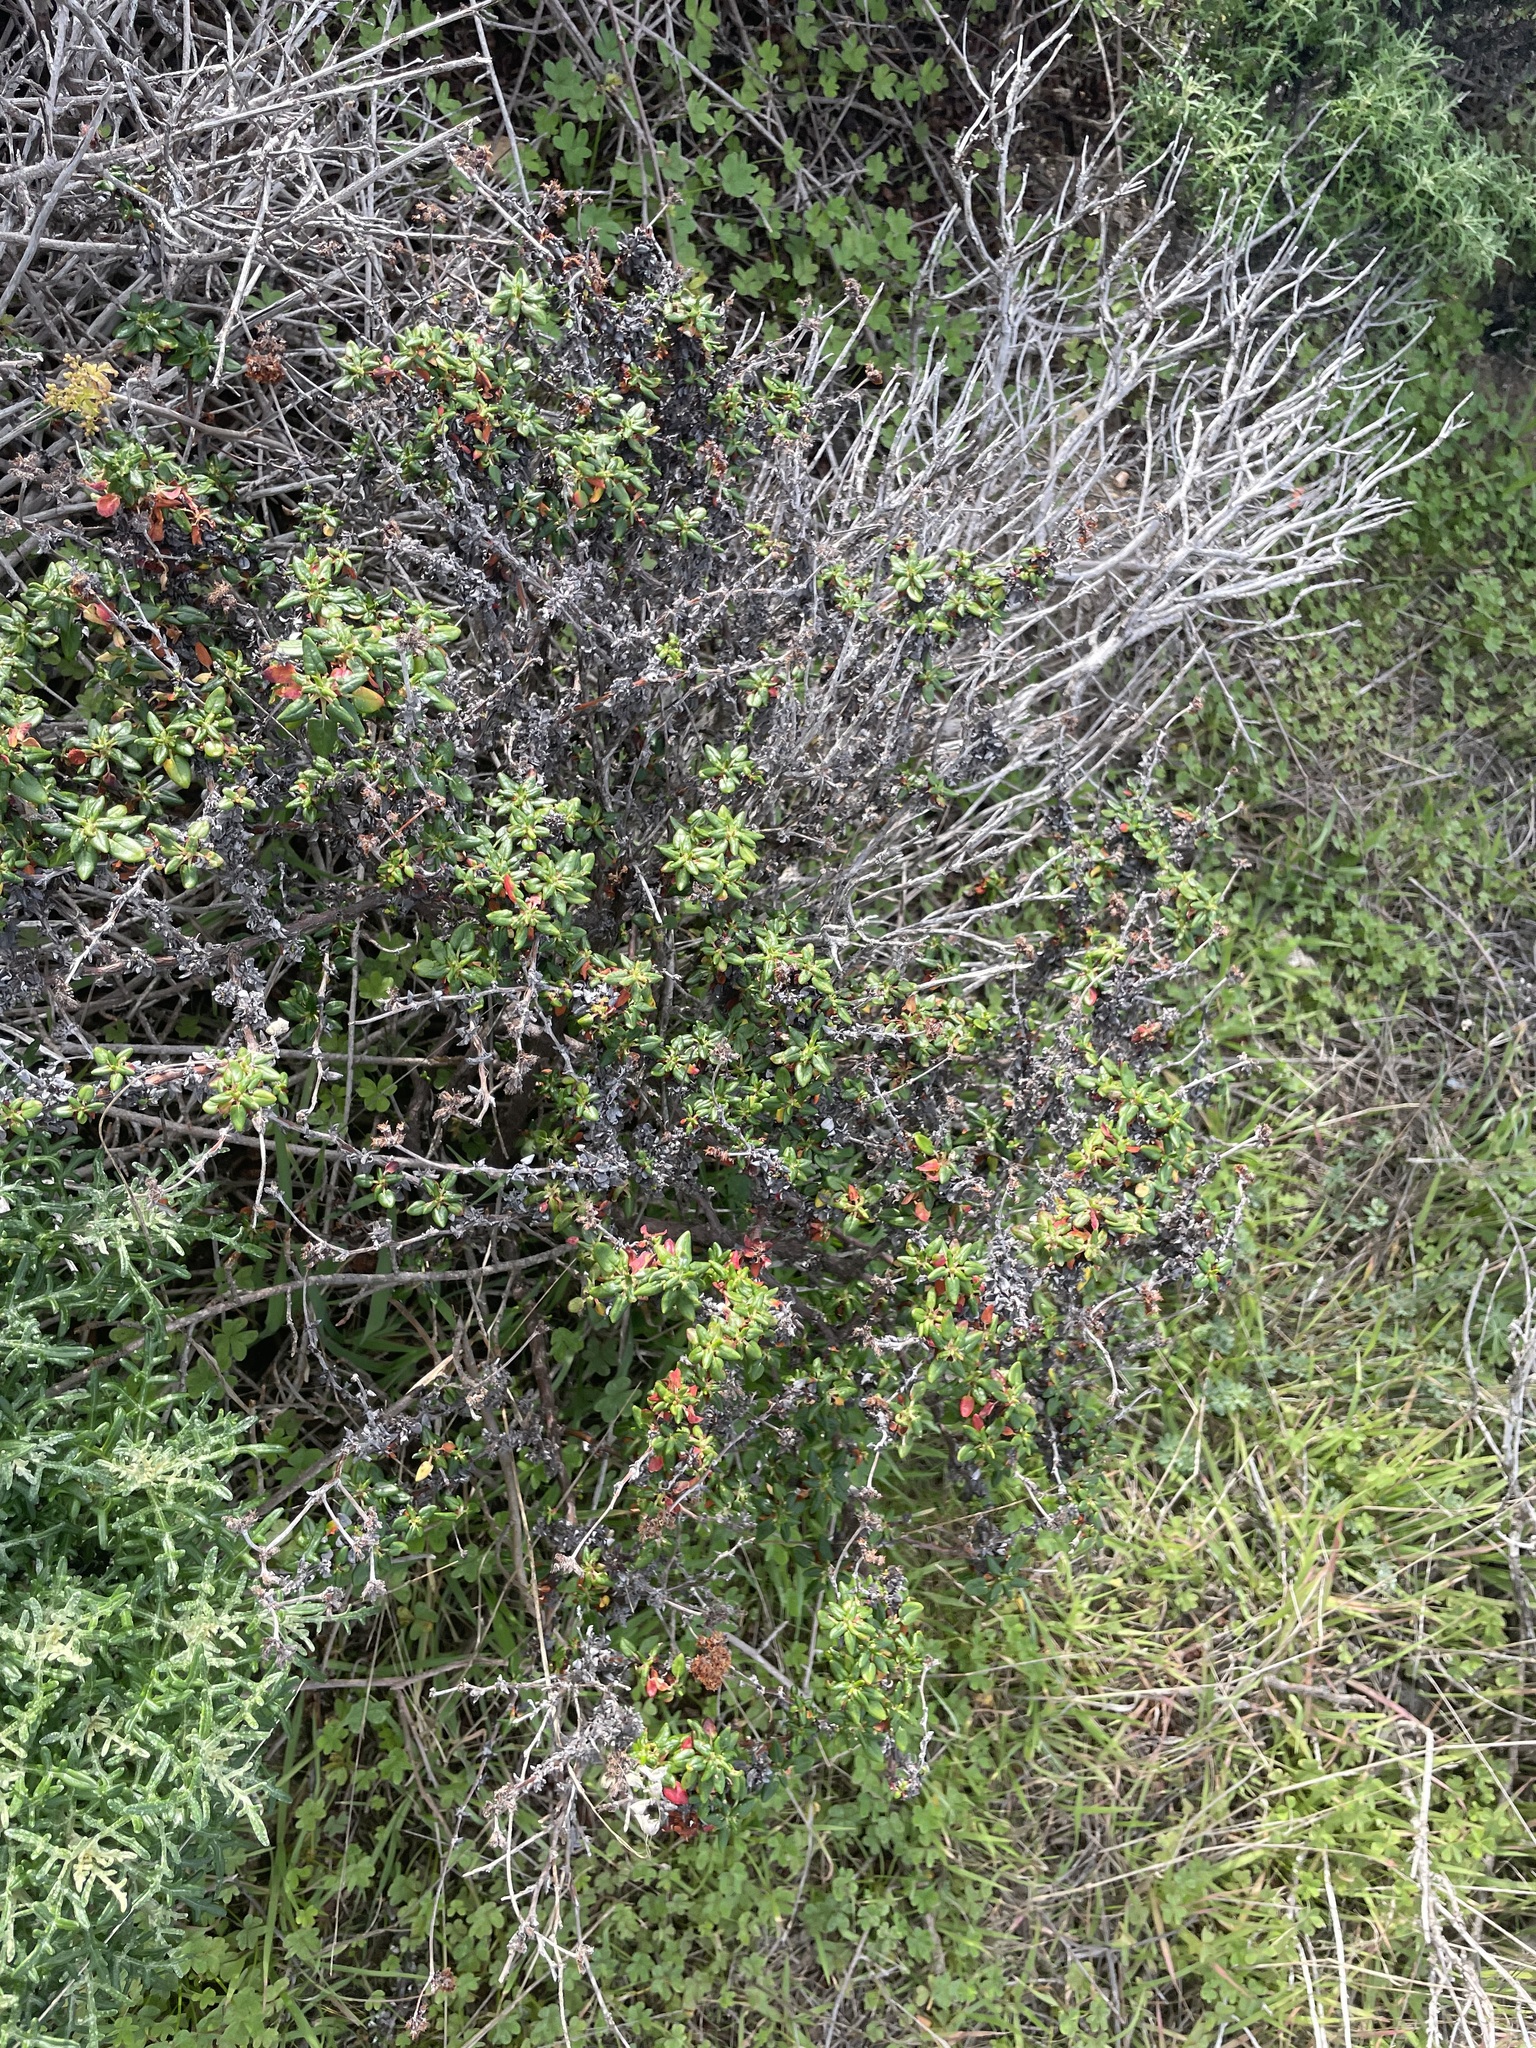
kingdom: Plantae
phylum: Tracheophyta
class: Magnoliopsida
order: Caryophyllales
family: Polygonaceae
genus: Eriogonum
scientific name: Eriogonum parvifolium
